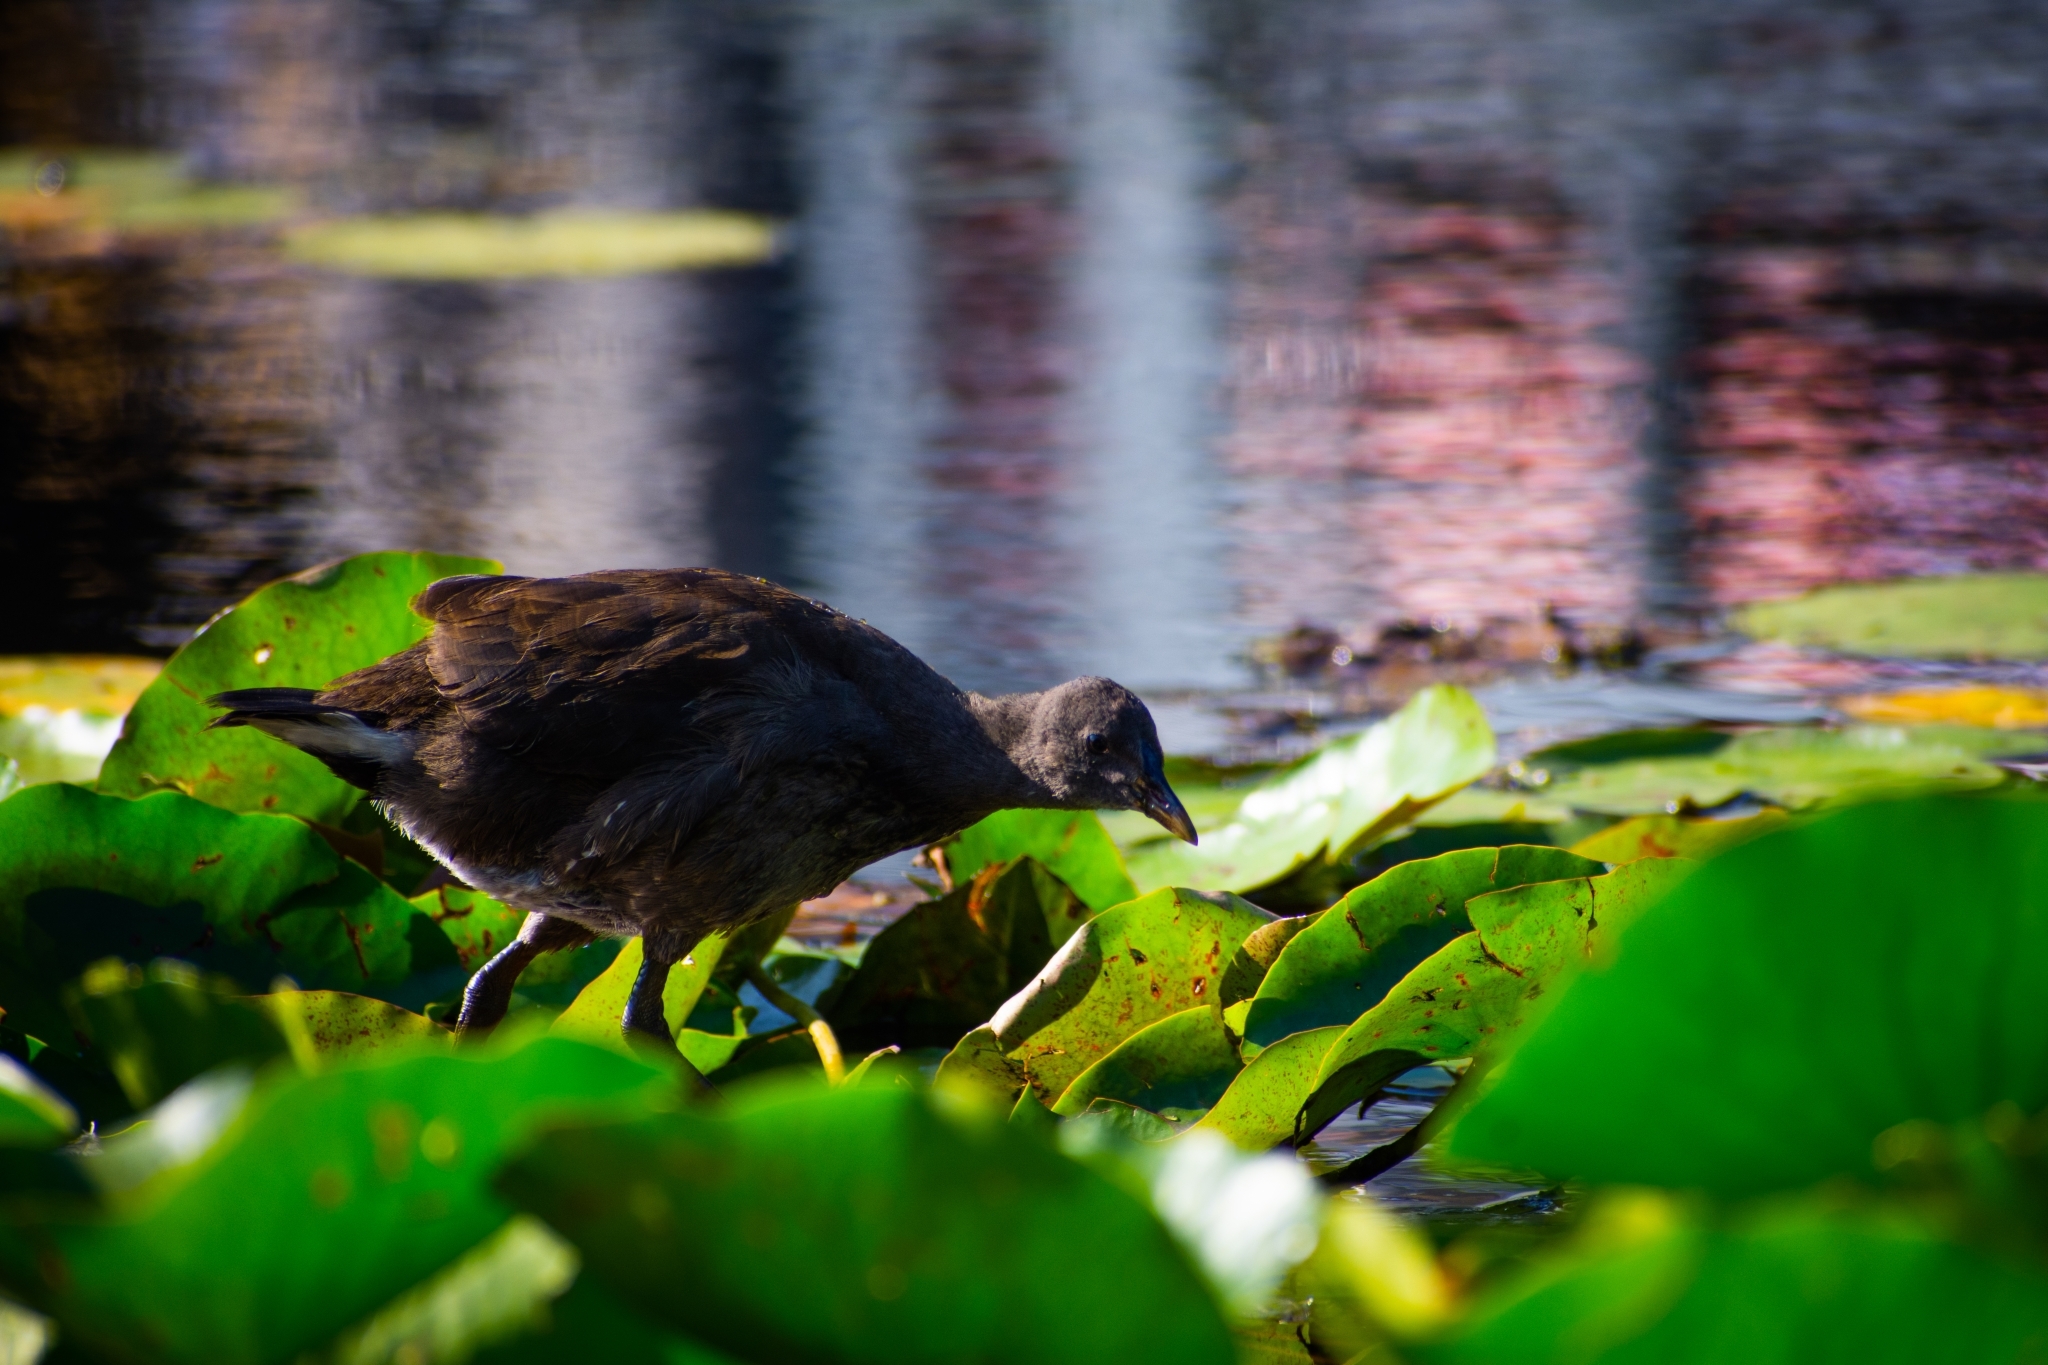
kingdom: Animalia
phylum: Chordata
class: Aves
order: Gruiformes
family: Rallidae
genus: Gallinula
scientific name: Gallinula tenebrosa
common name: Dusky moorhen
